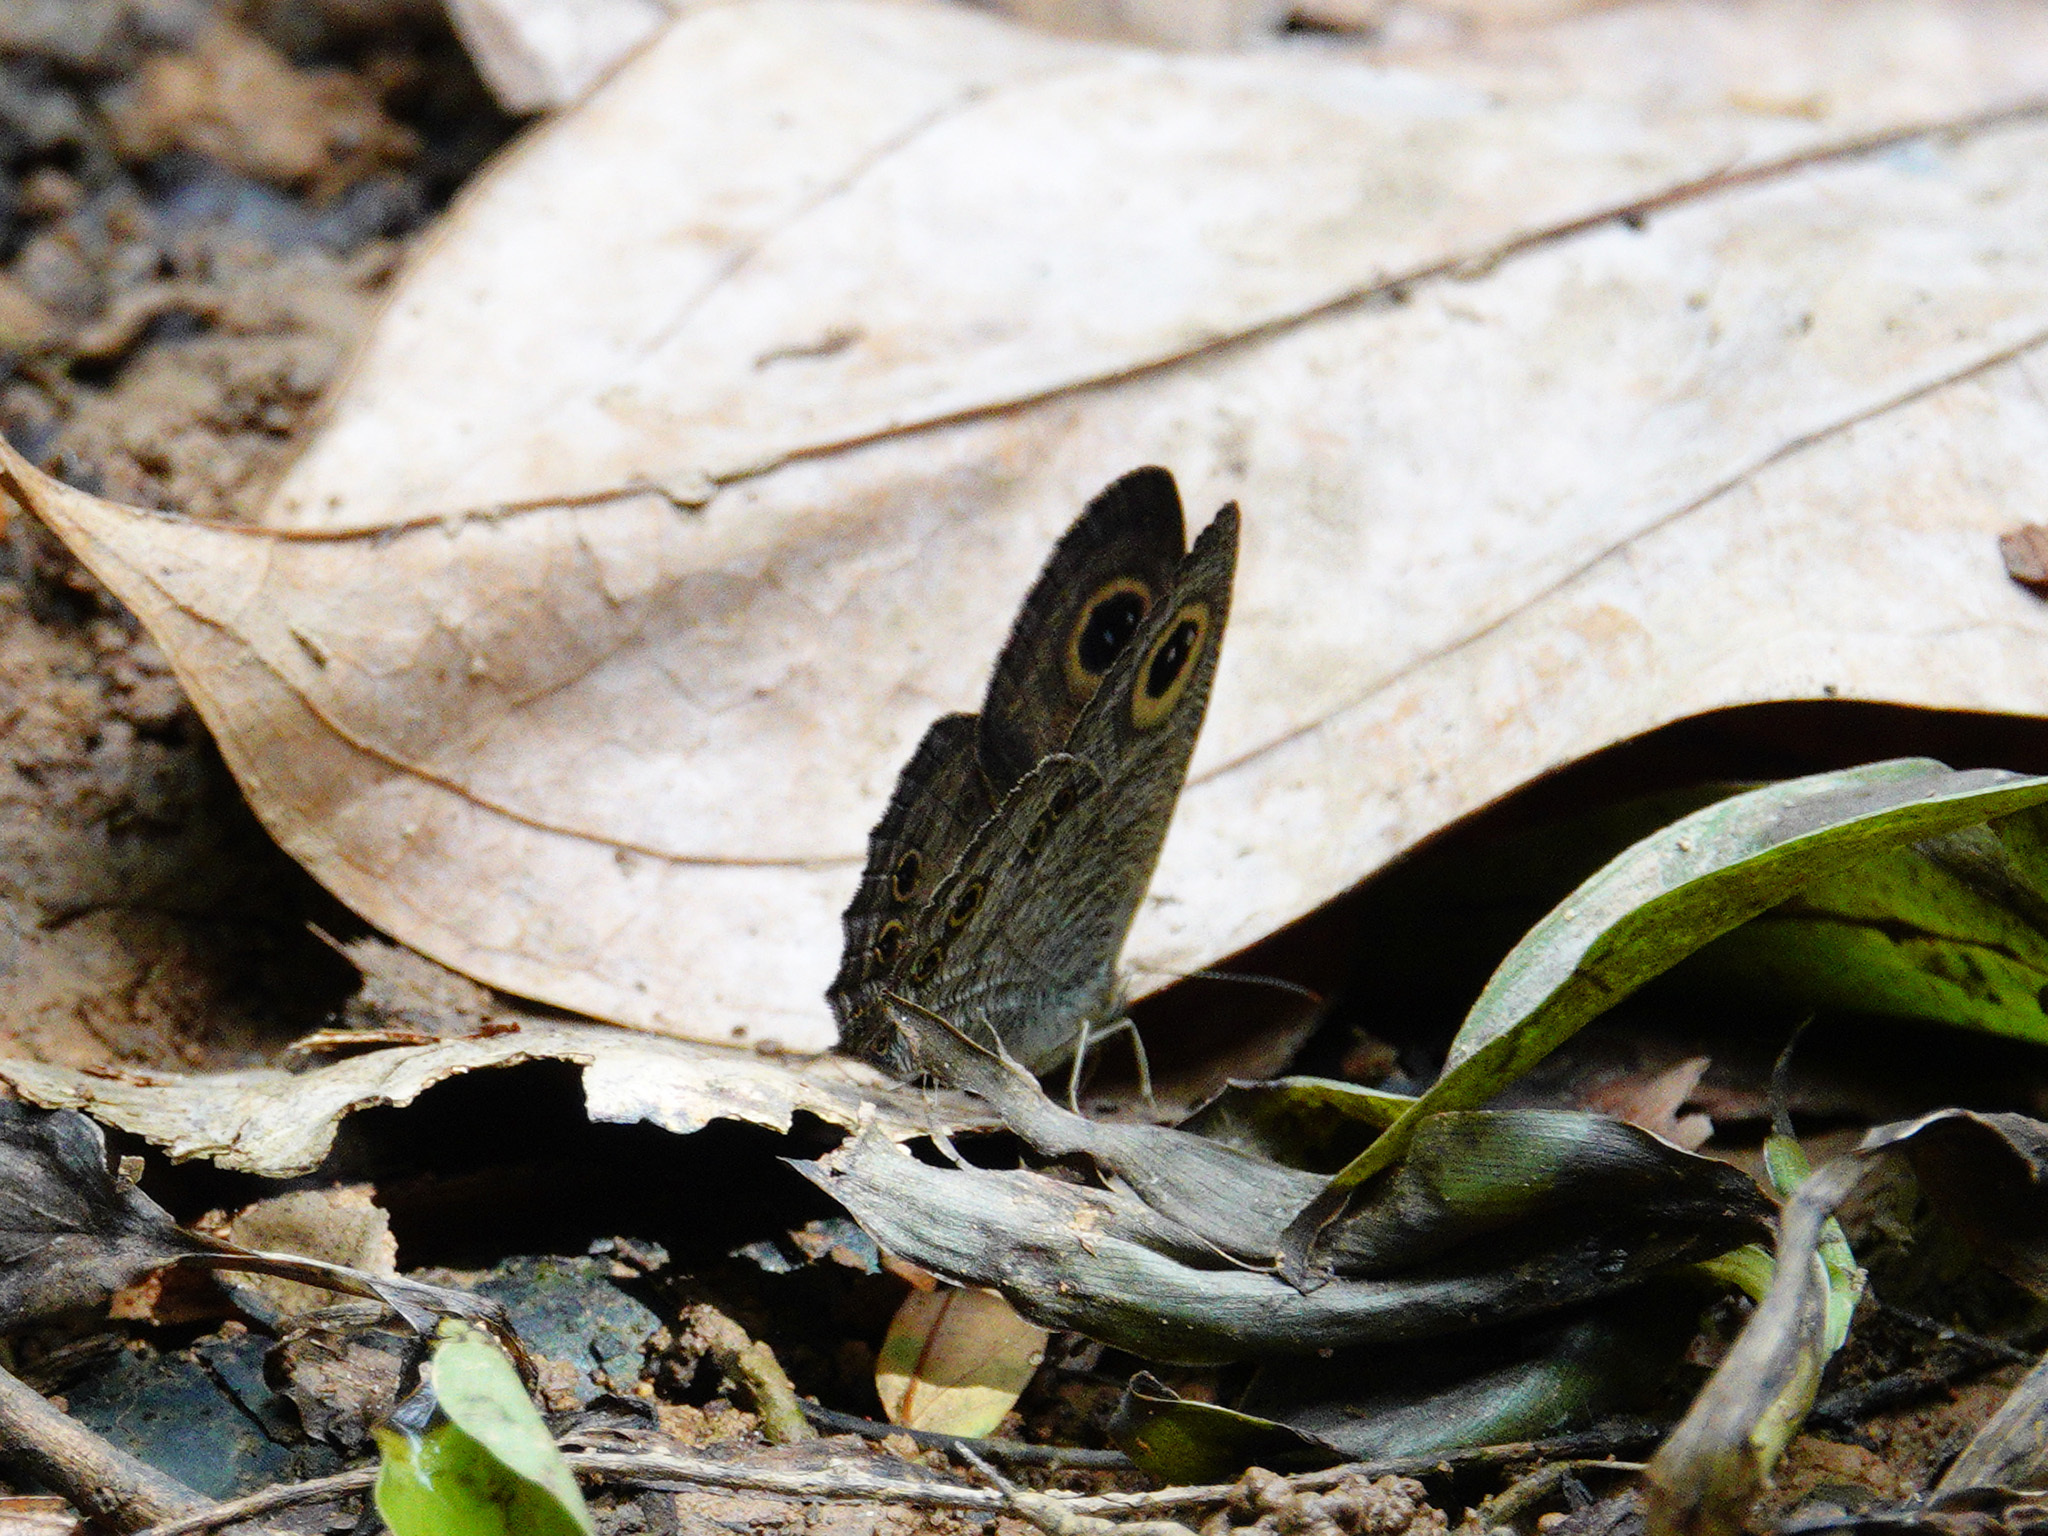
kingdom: Animalia
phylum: Arthropoda
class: Insecta
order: Lepidoptera
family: Nymphalidae
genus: Ypthima
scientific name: Ypthima baldus
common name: Common five-ring
